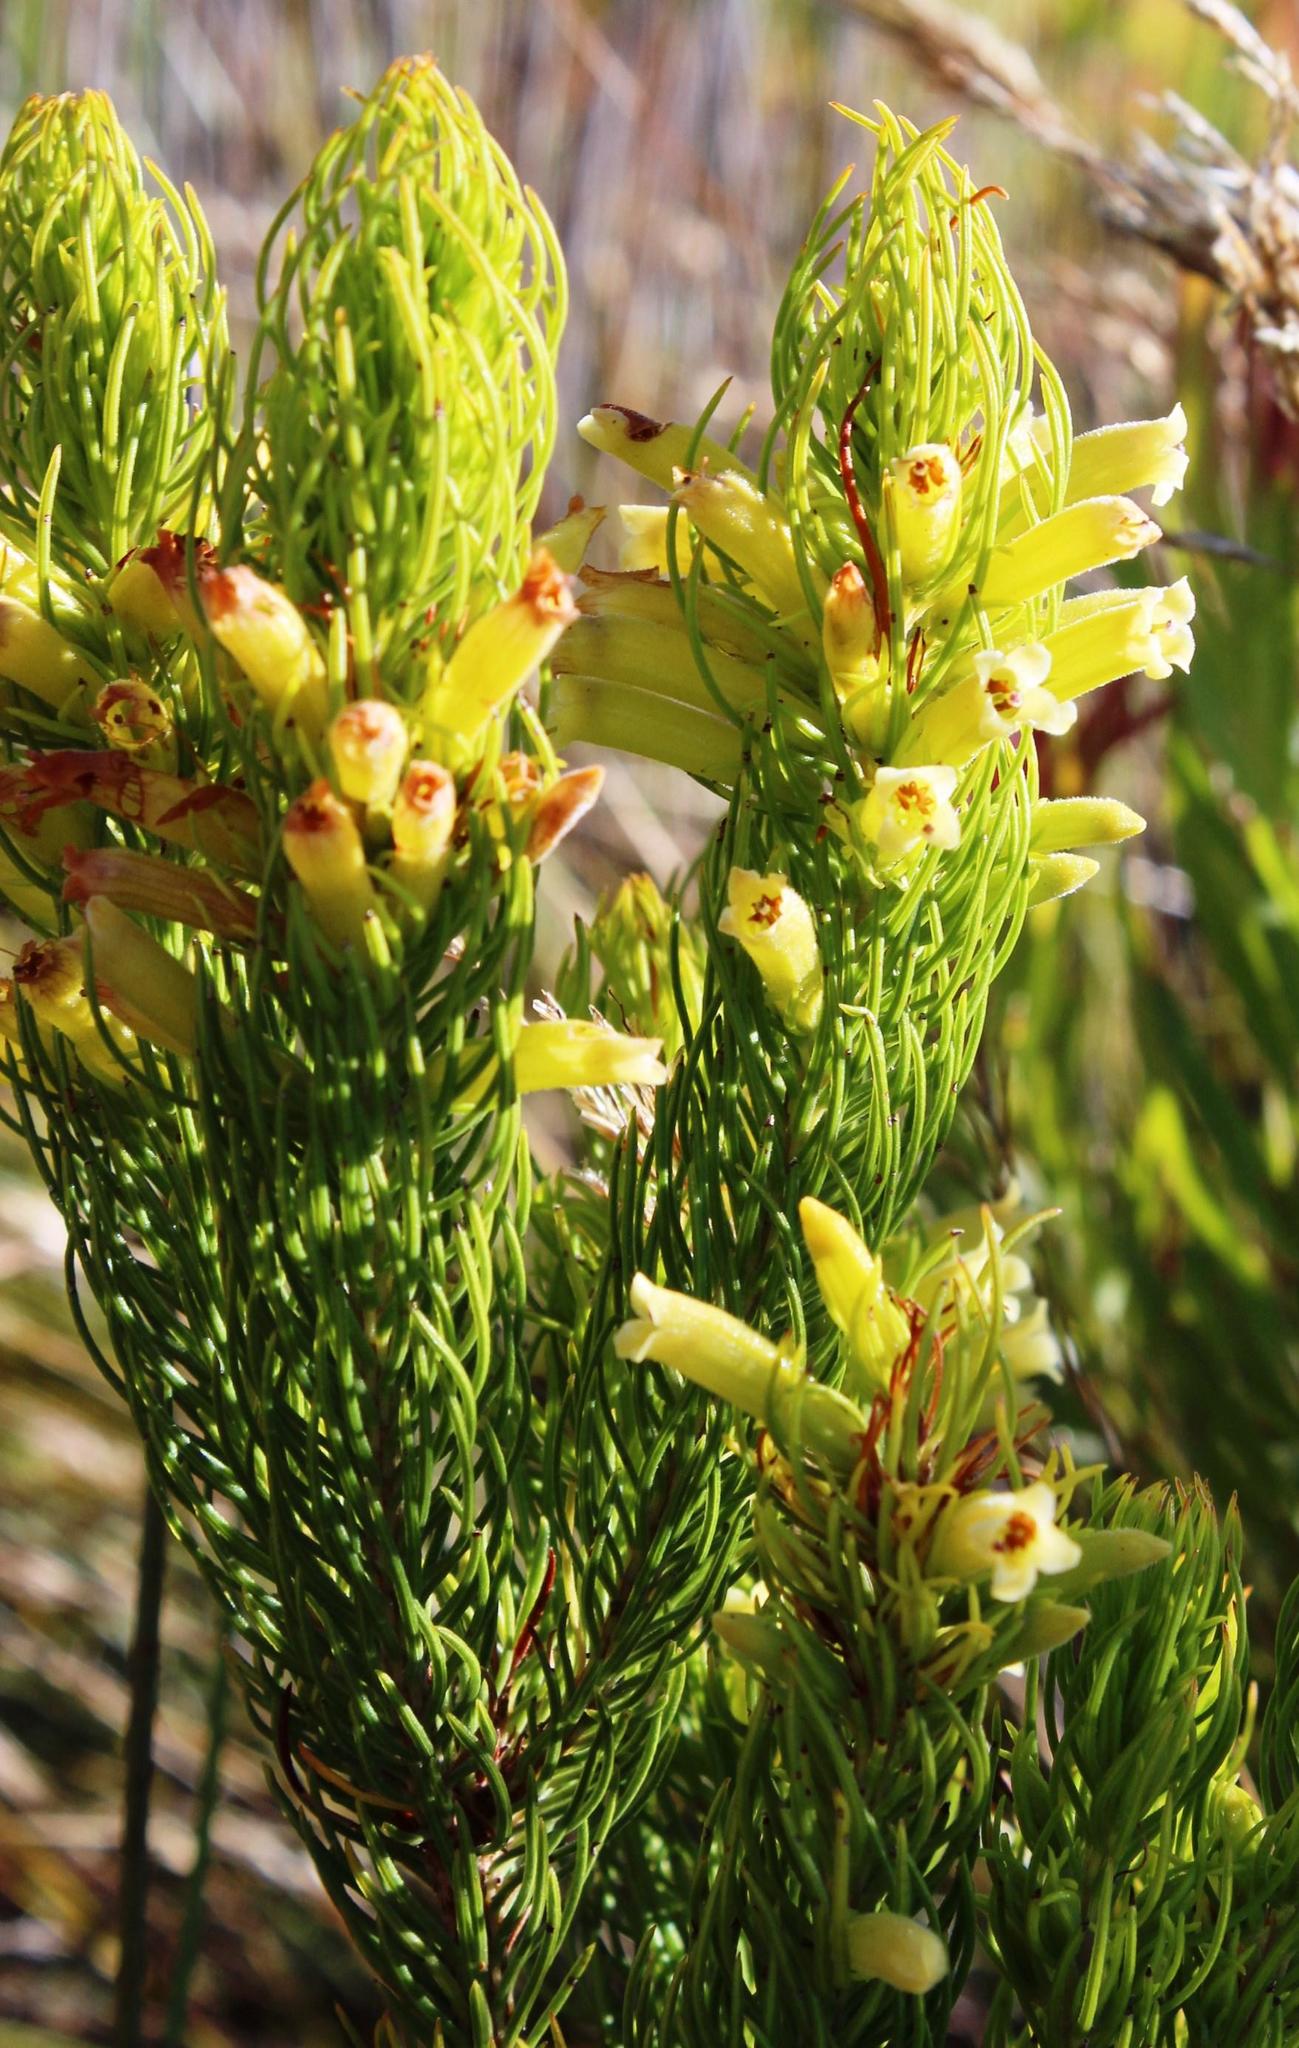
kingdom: Plantae
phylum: Tracheophyta
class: Magnoliopsida
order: Ericales
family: Ericaceae
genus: Erica
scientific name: Erica viscaria
